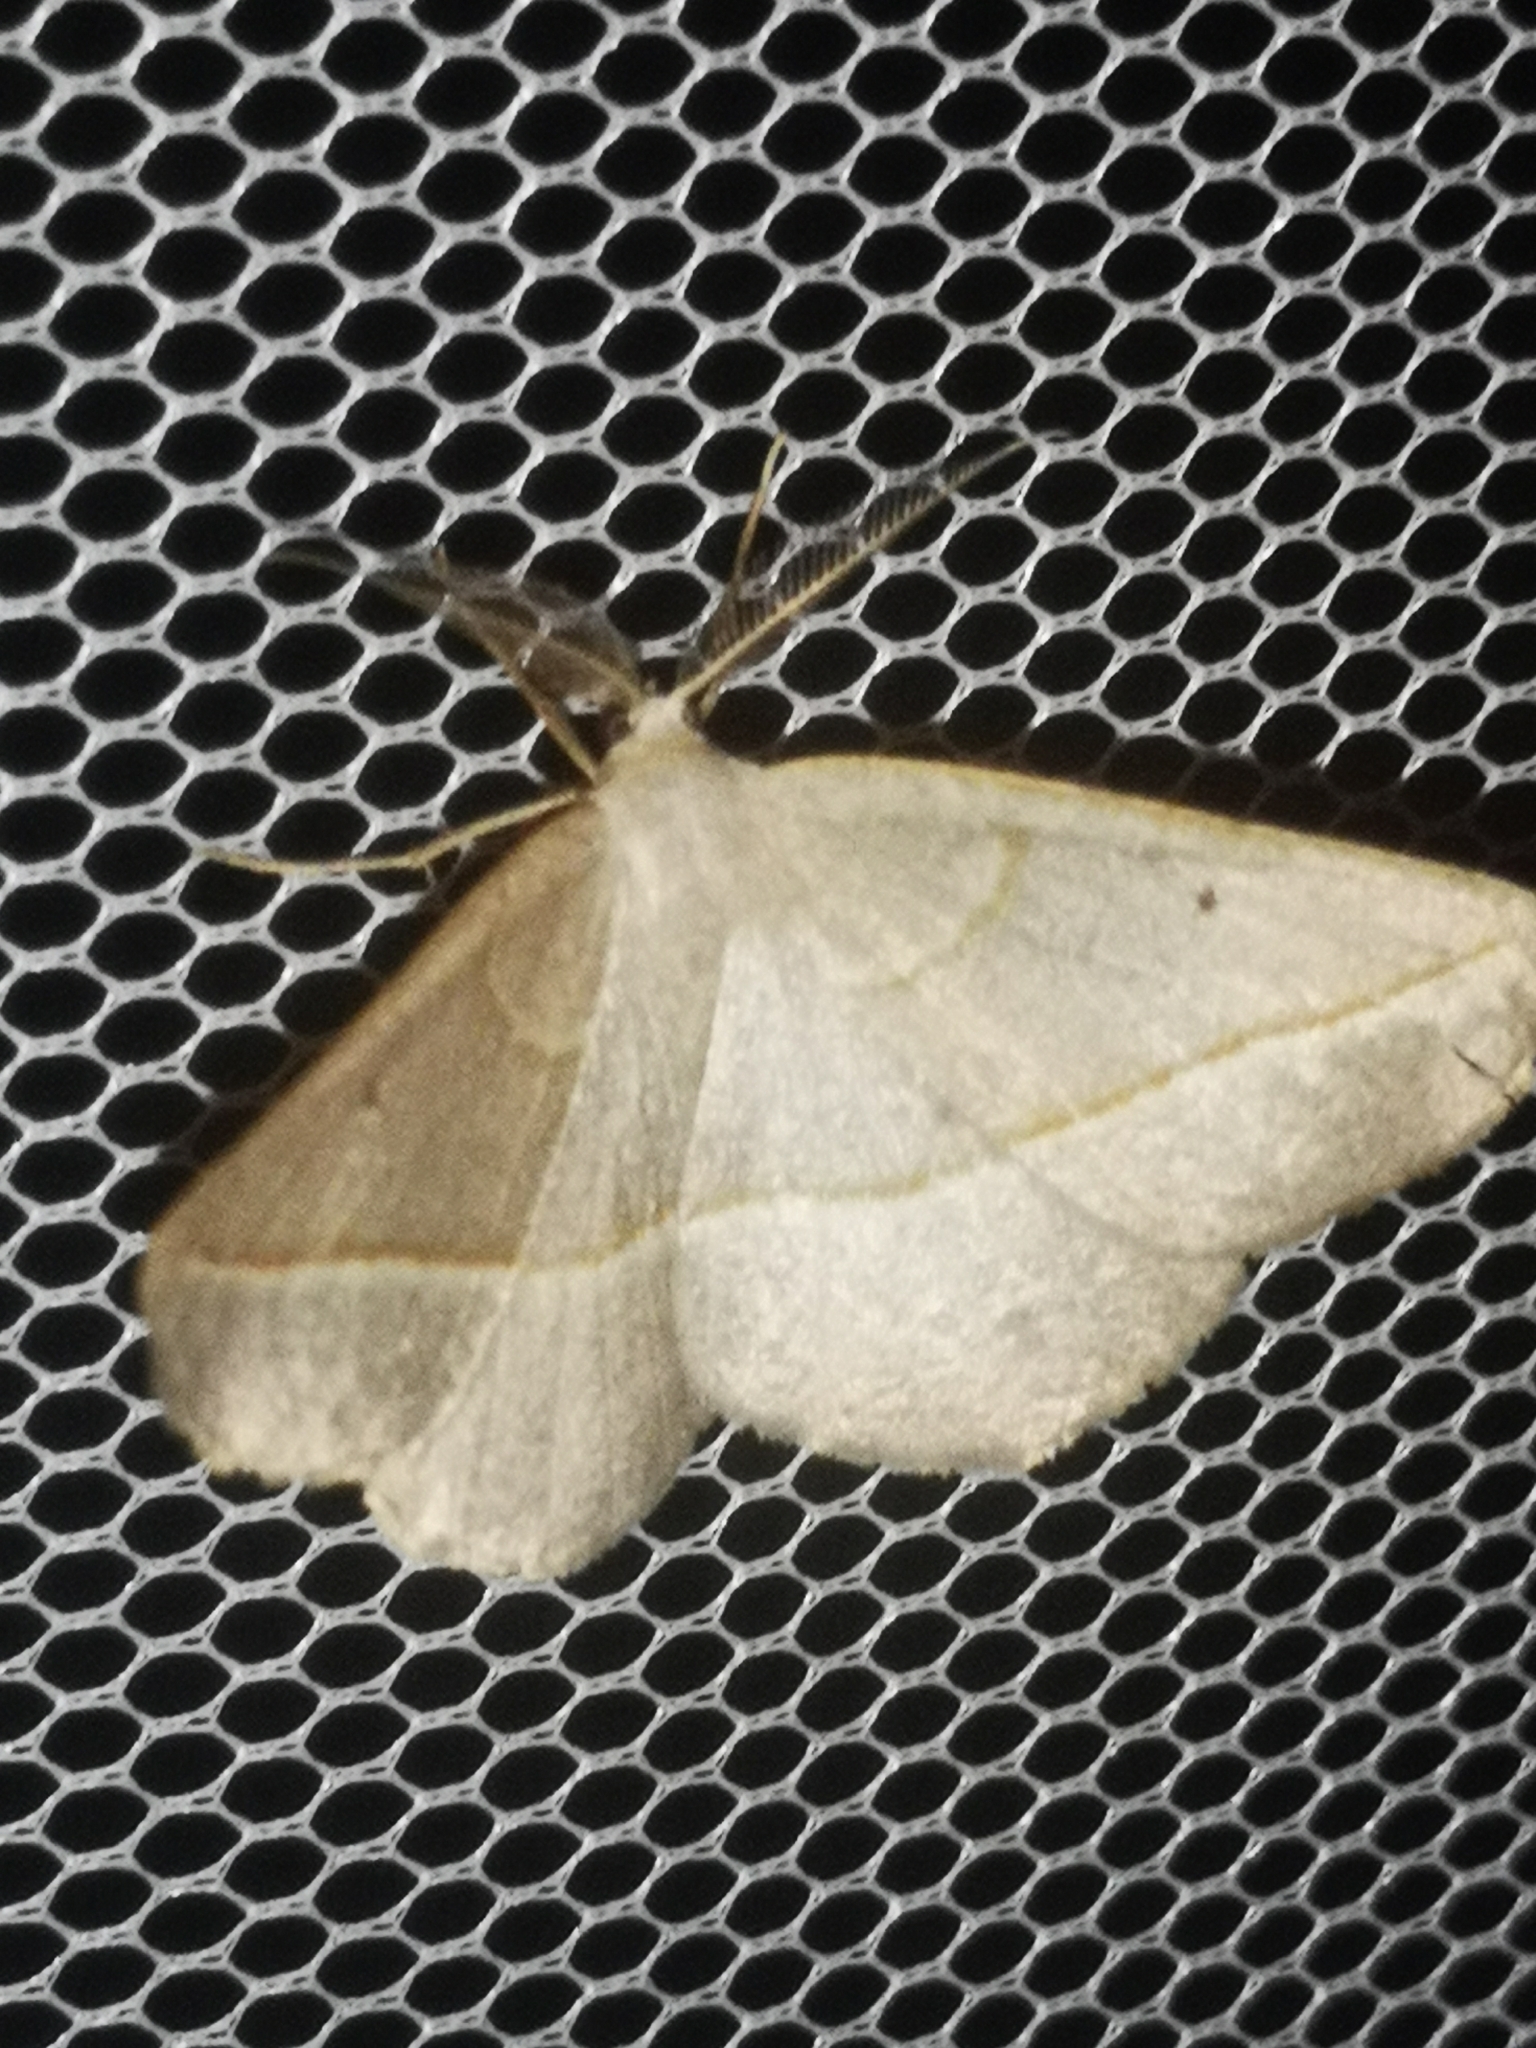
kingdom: Animalia
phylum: Arthropoda
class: Insecta
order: Lepidoptera
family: Geometridae
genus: Eusarca
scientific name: Eusarca confusaria
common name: Confused eusarca
